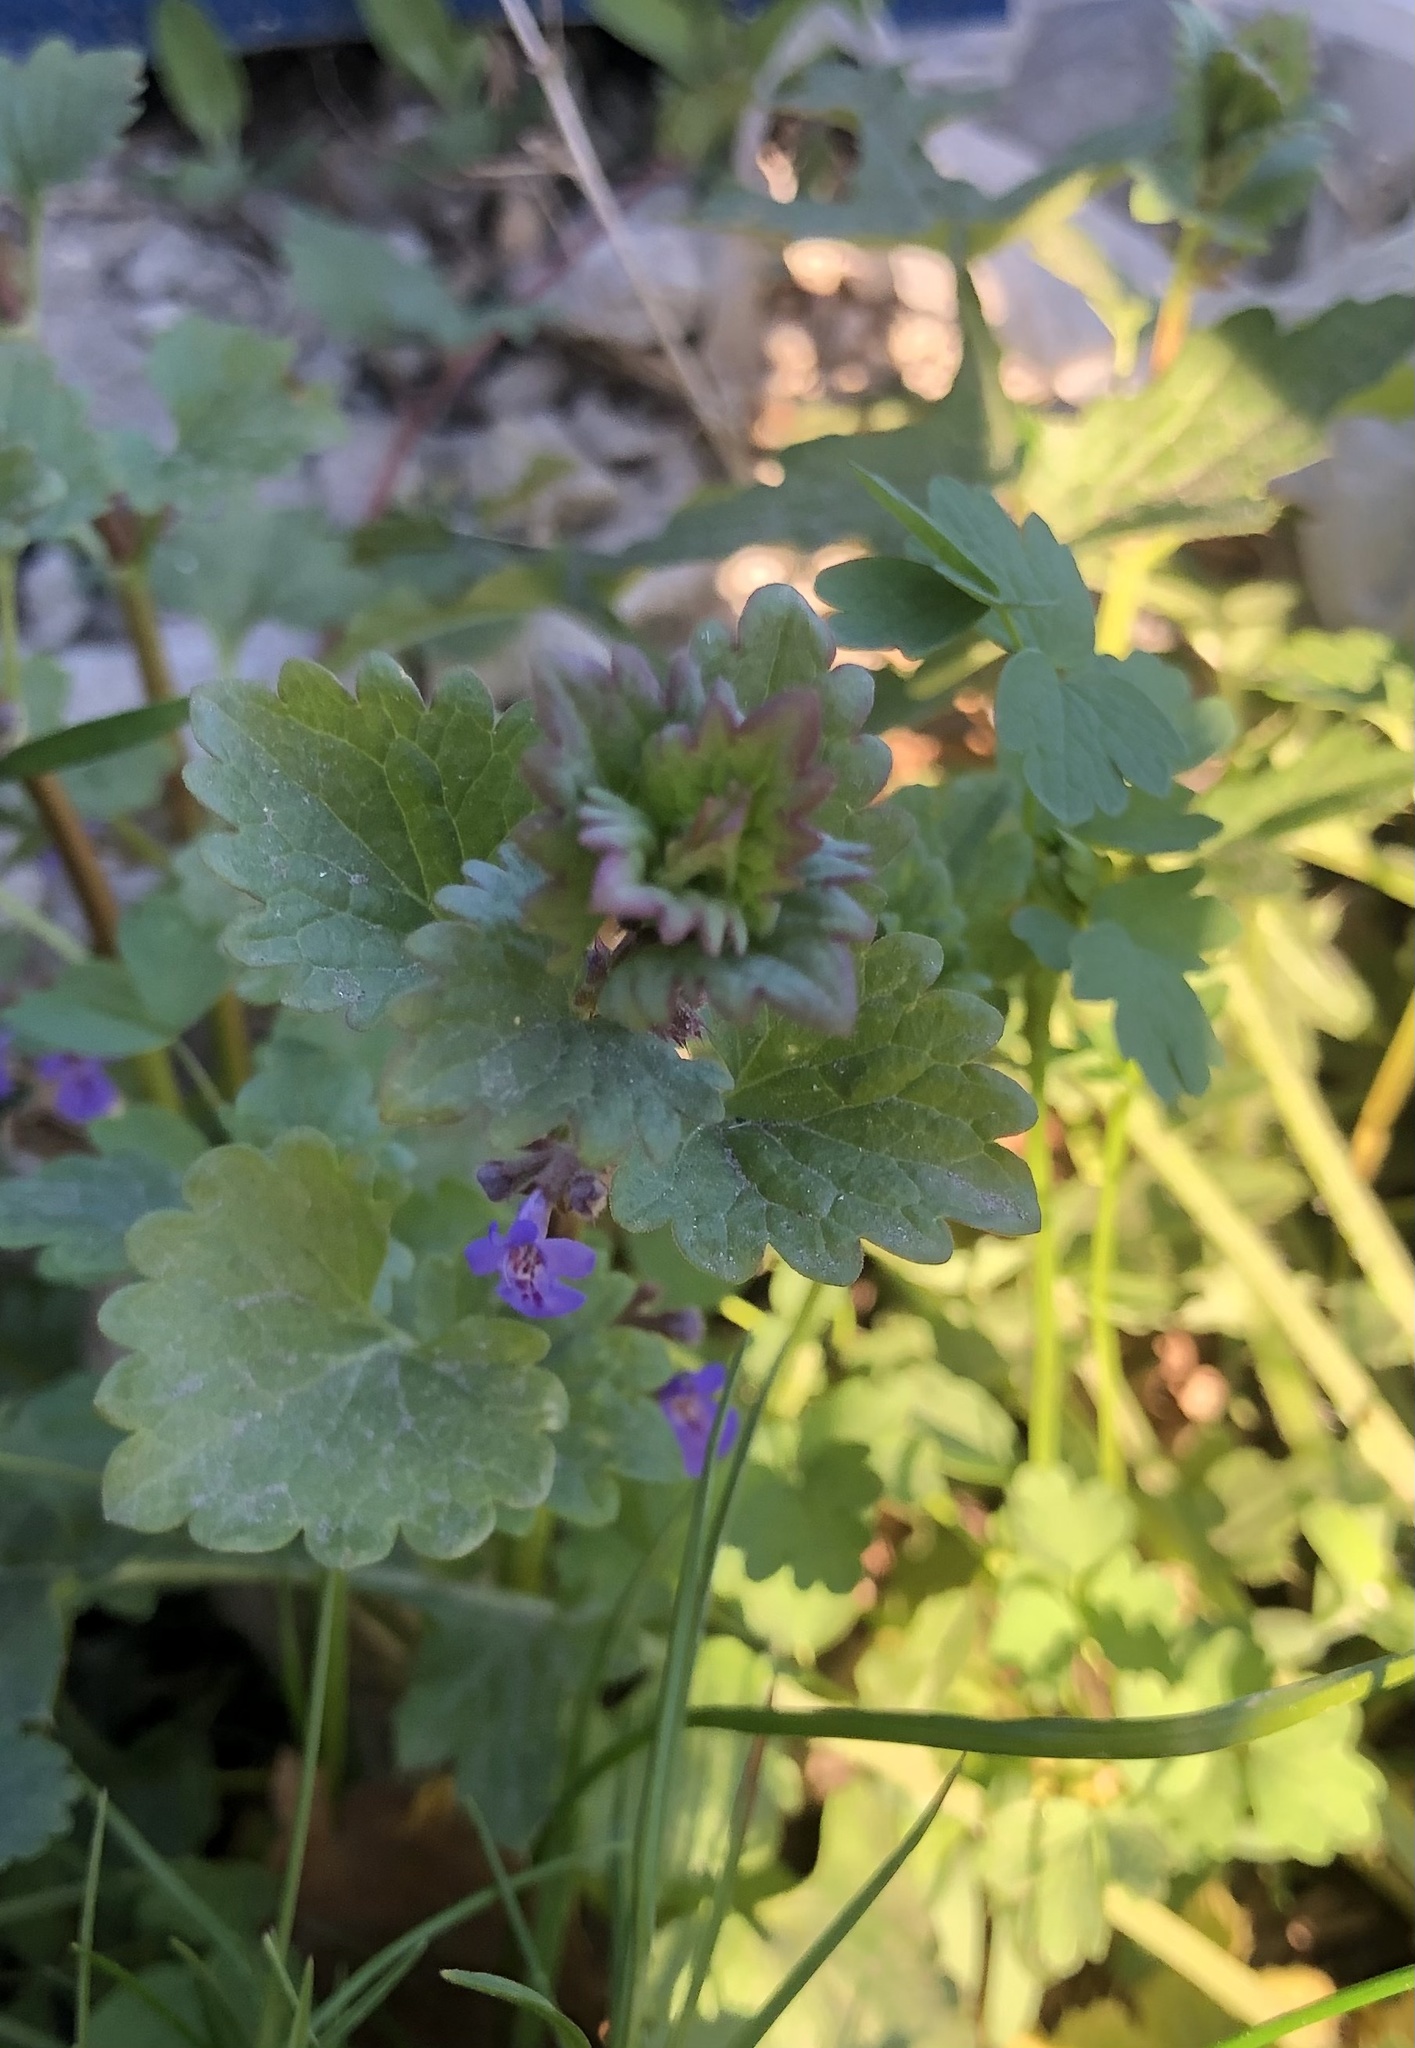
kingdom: Plantae
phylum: Tracheophyta
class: Magnoliopsida
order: Lamiales
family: Lamiaceae
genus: Glechoma
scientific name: Glechoma hederacea
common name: Ground ivy
